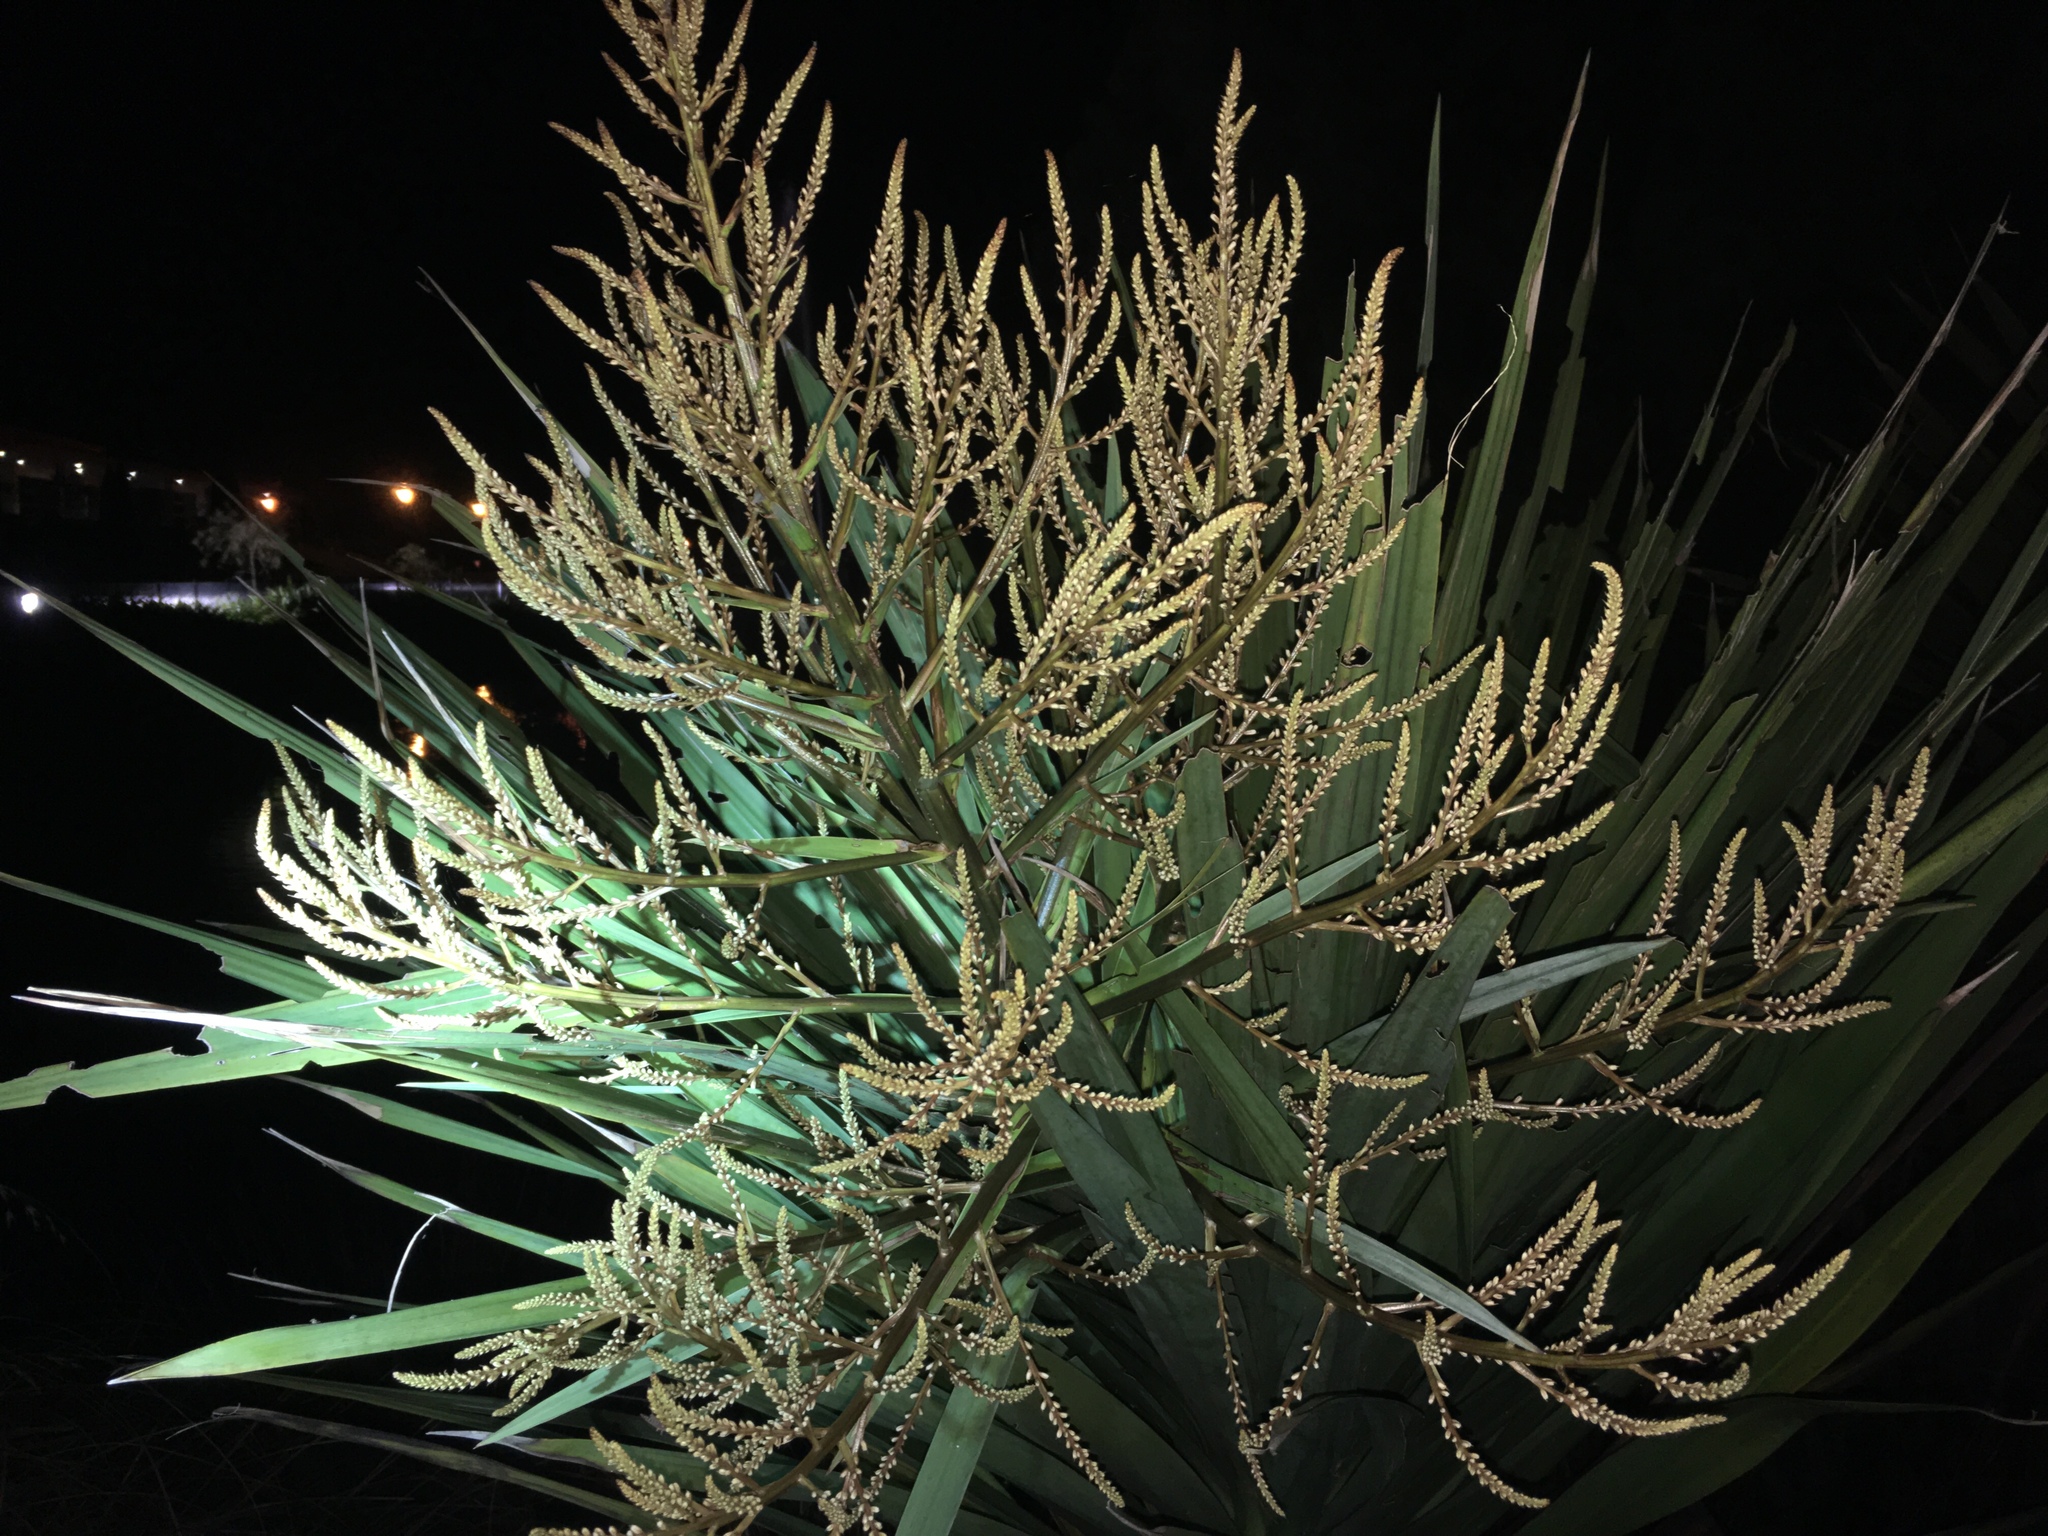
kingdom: Plantae
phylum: Tracheophyta
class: Liliopsida
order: Asparagales
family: Asparagaceae
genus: Cordyline
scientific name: Cordyline australis
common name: Cabbage-palm
